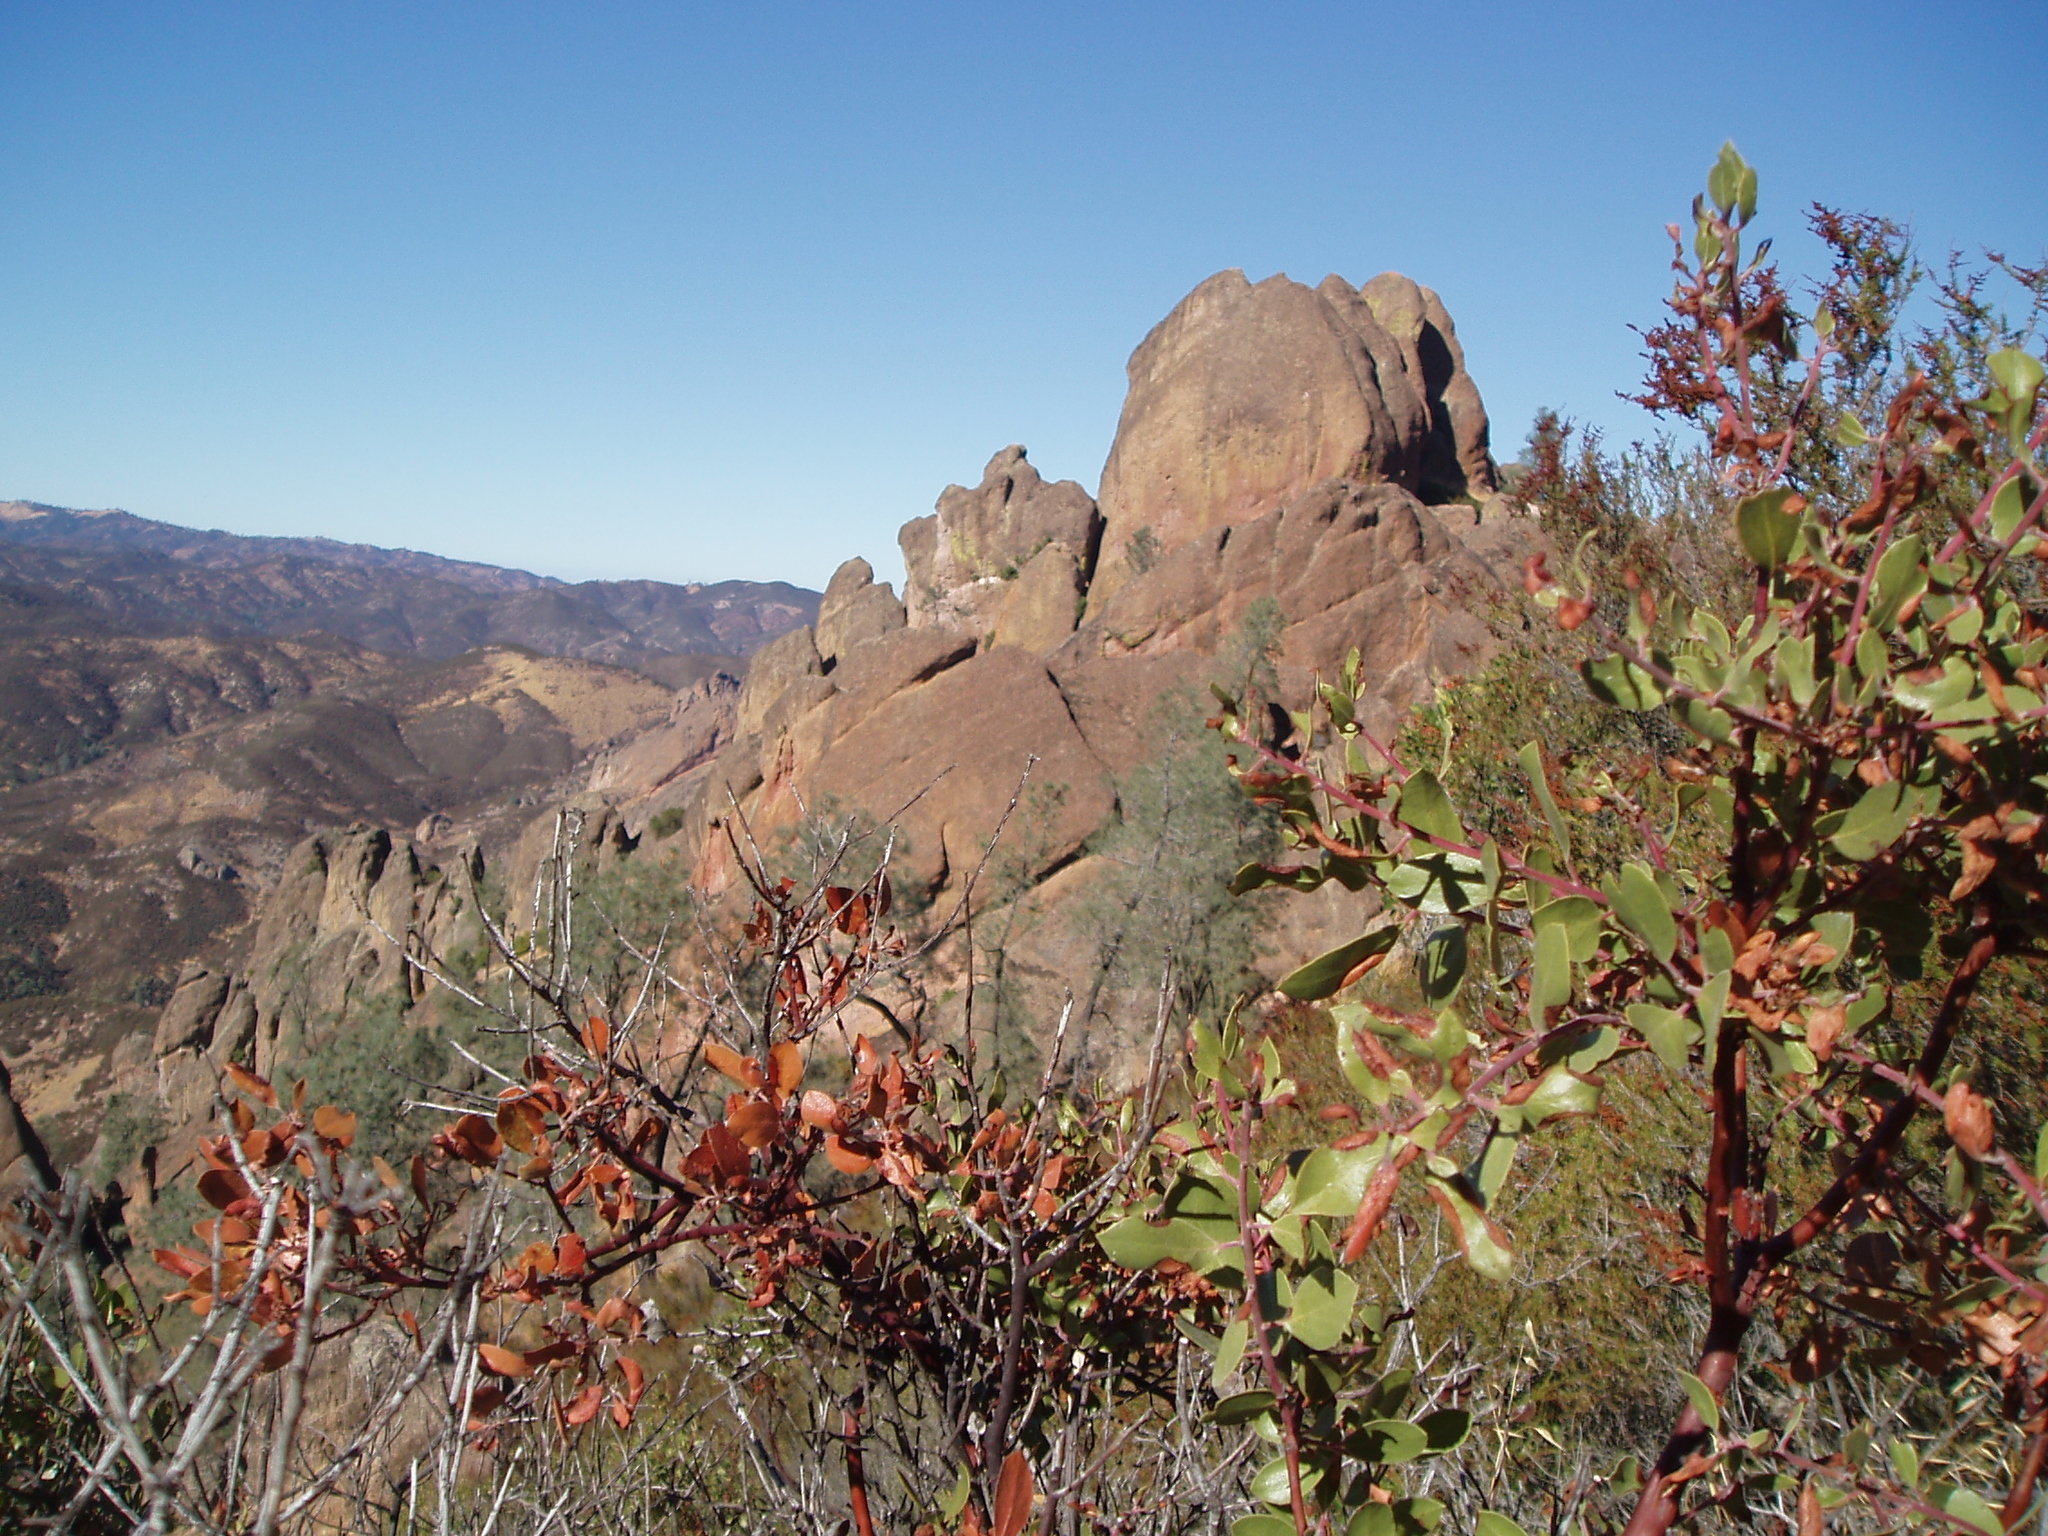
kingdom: Plantae
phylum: Tracheophyta
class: Magnoliopsida
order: Ericales
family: Ericaceae
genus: Arctostaphylos
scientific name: Arctostaphylos pungens
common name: Mexican manzanita
